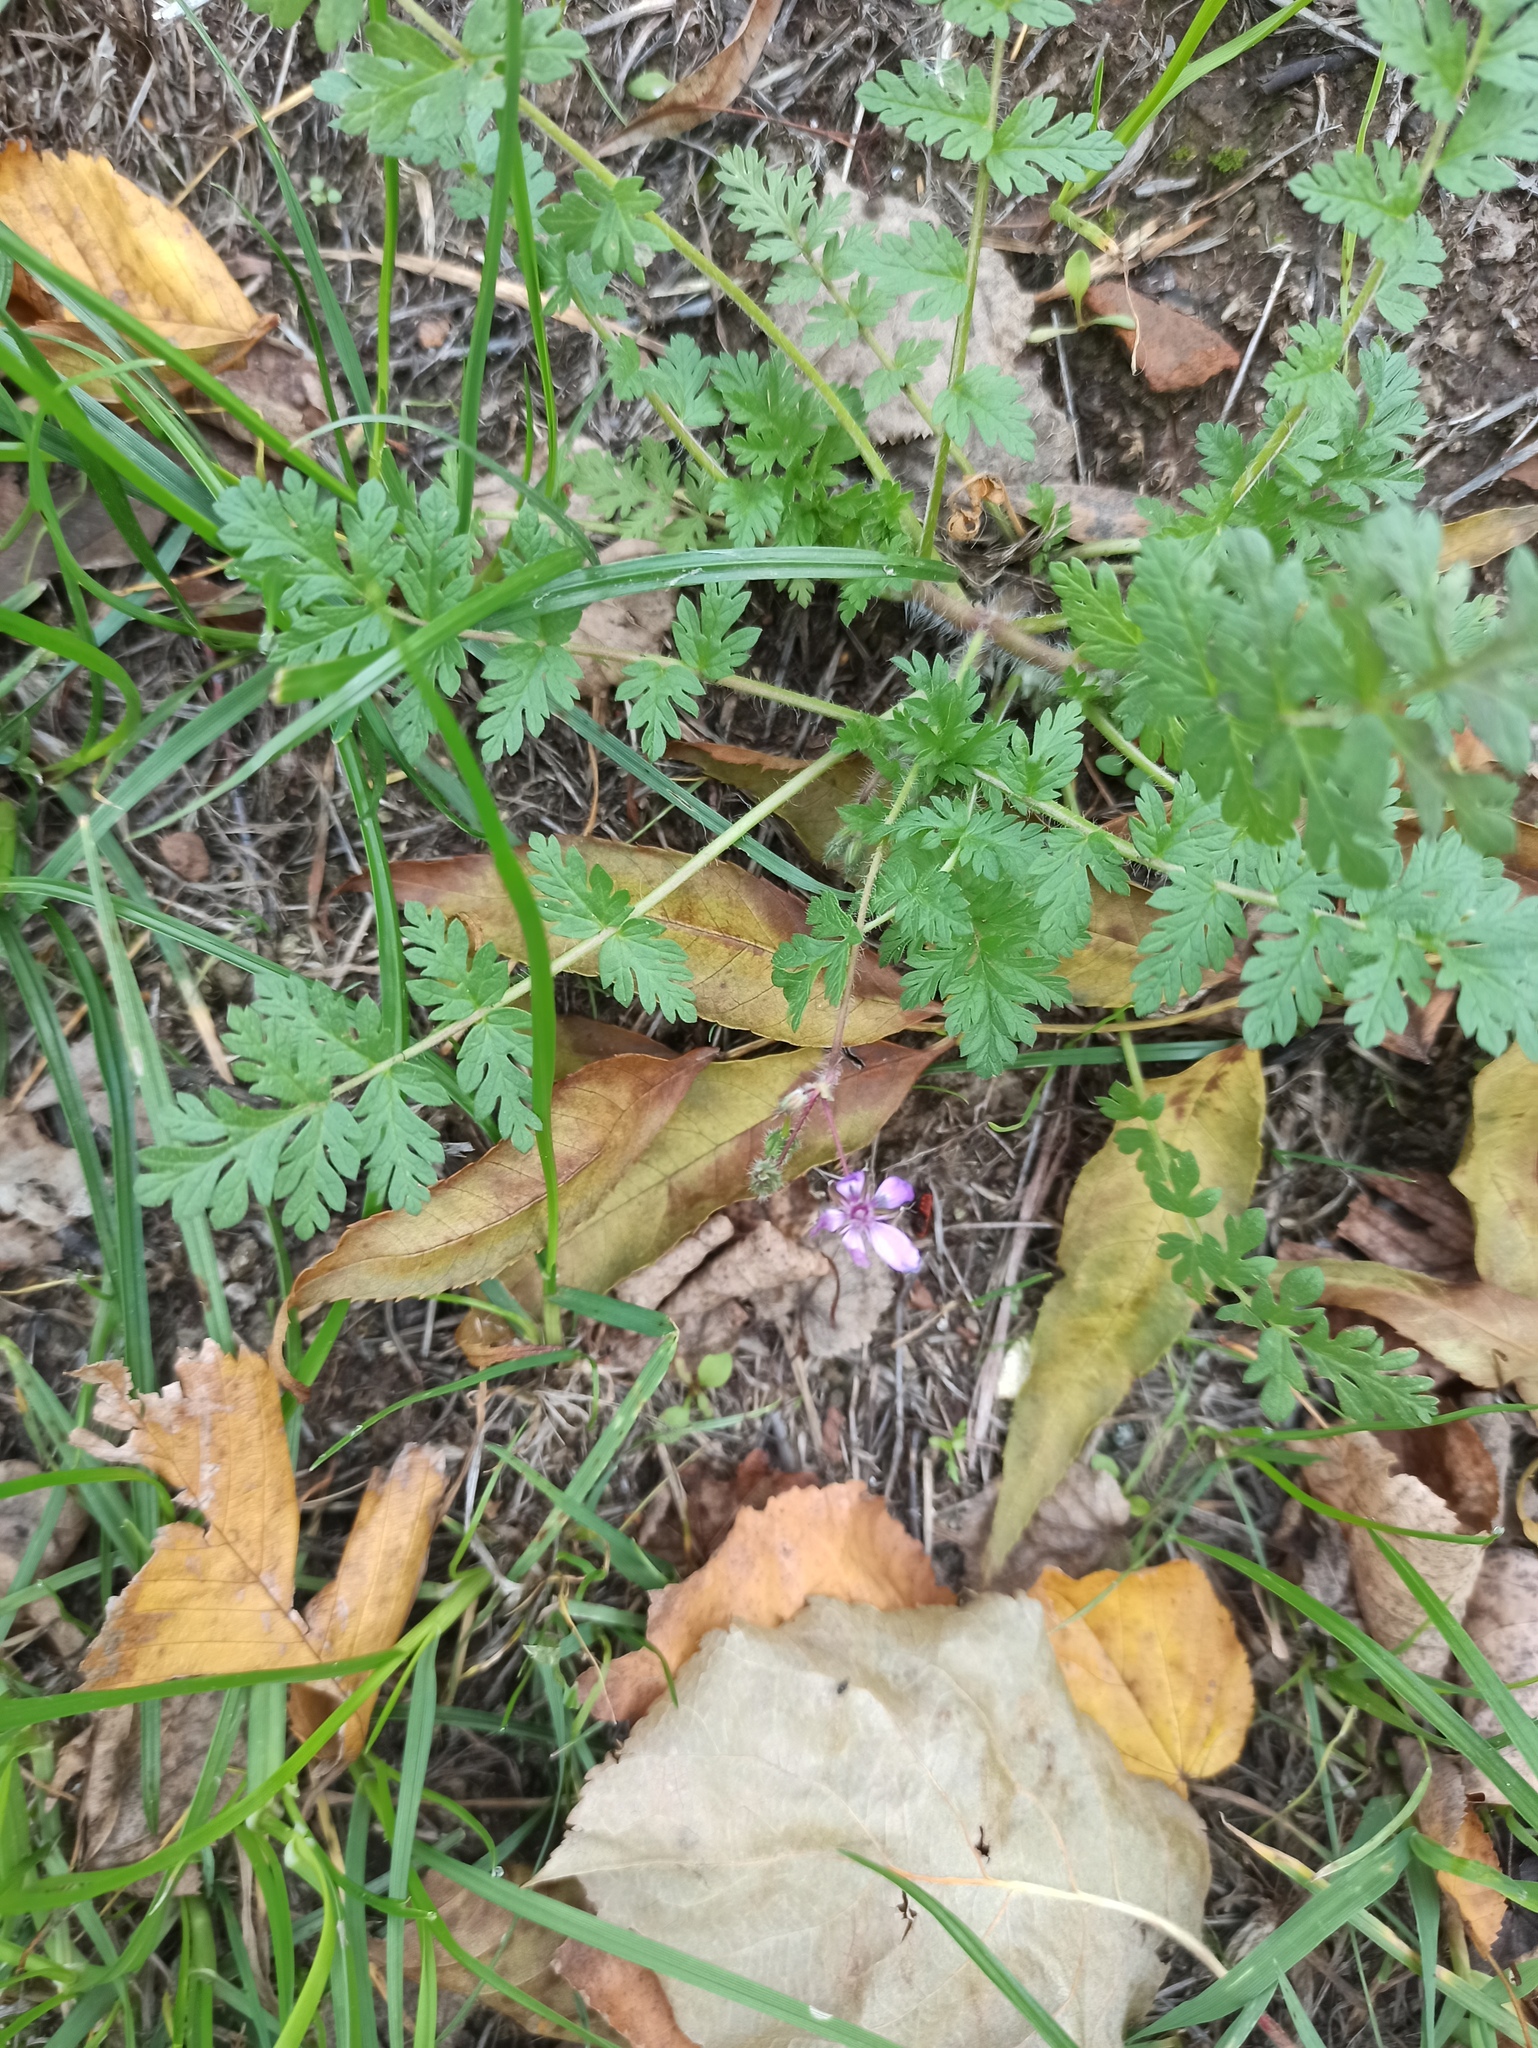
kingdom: Plantae
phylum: Tracheophyta
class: Magnoliopsida
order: Geraniales
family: Geraniaceae
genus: Erodium
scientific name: Erodium cicutarium
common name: Common stork's-bill
